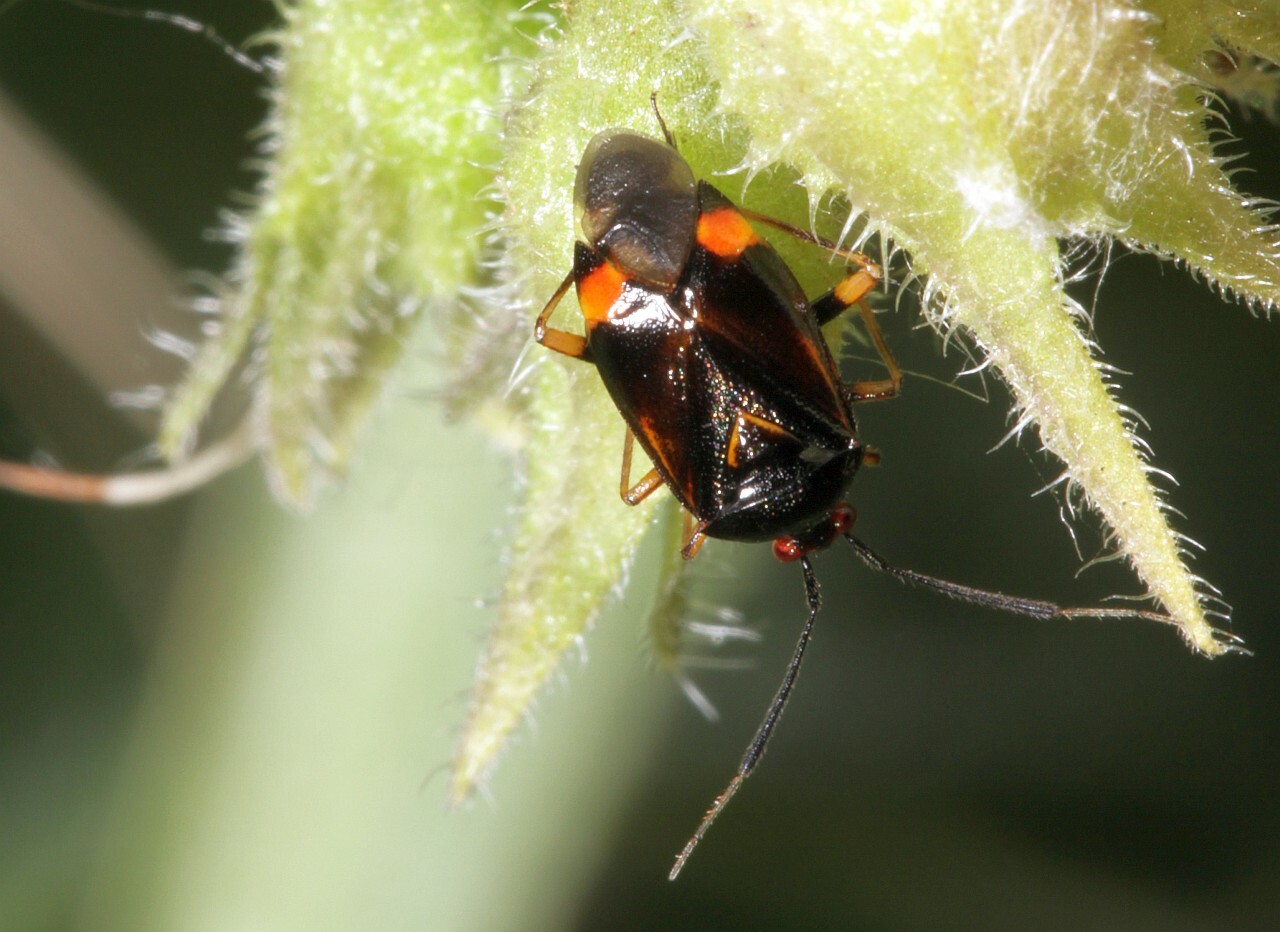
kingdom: Animalia
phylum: Arthropoda
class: Insecta
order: Hemiptera
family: Miridae
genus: Deraeocoris
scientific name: Deraeocoris ruber
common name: Plant bug
